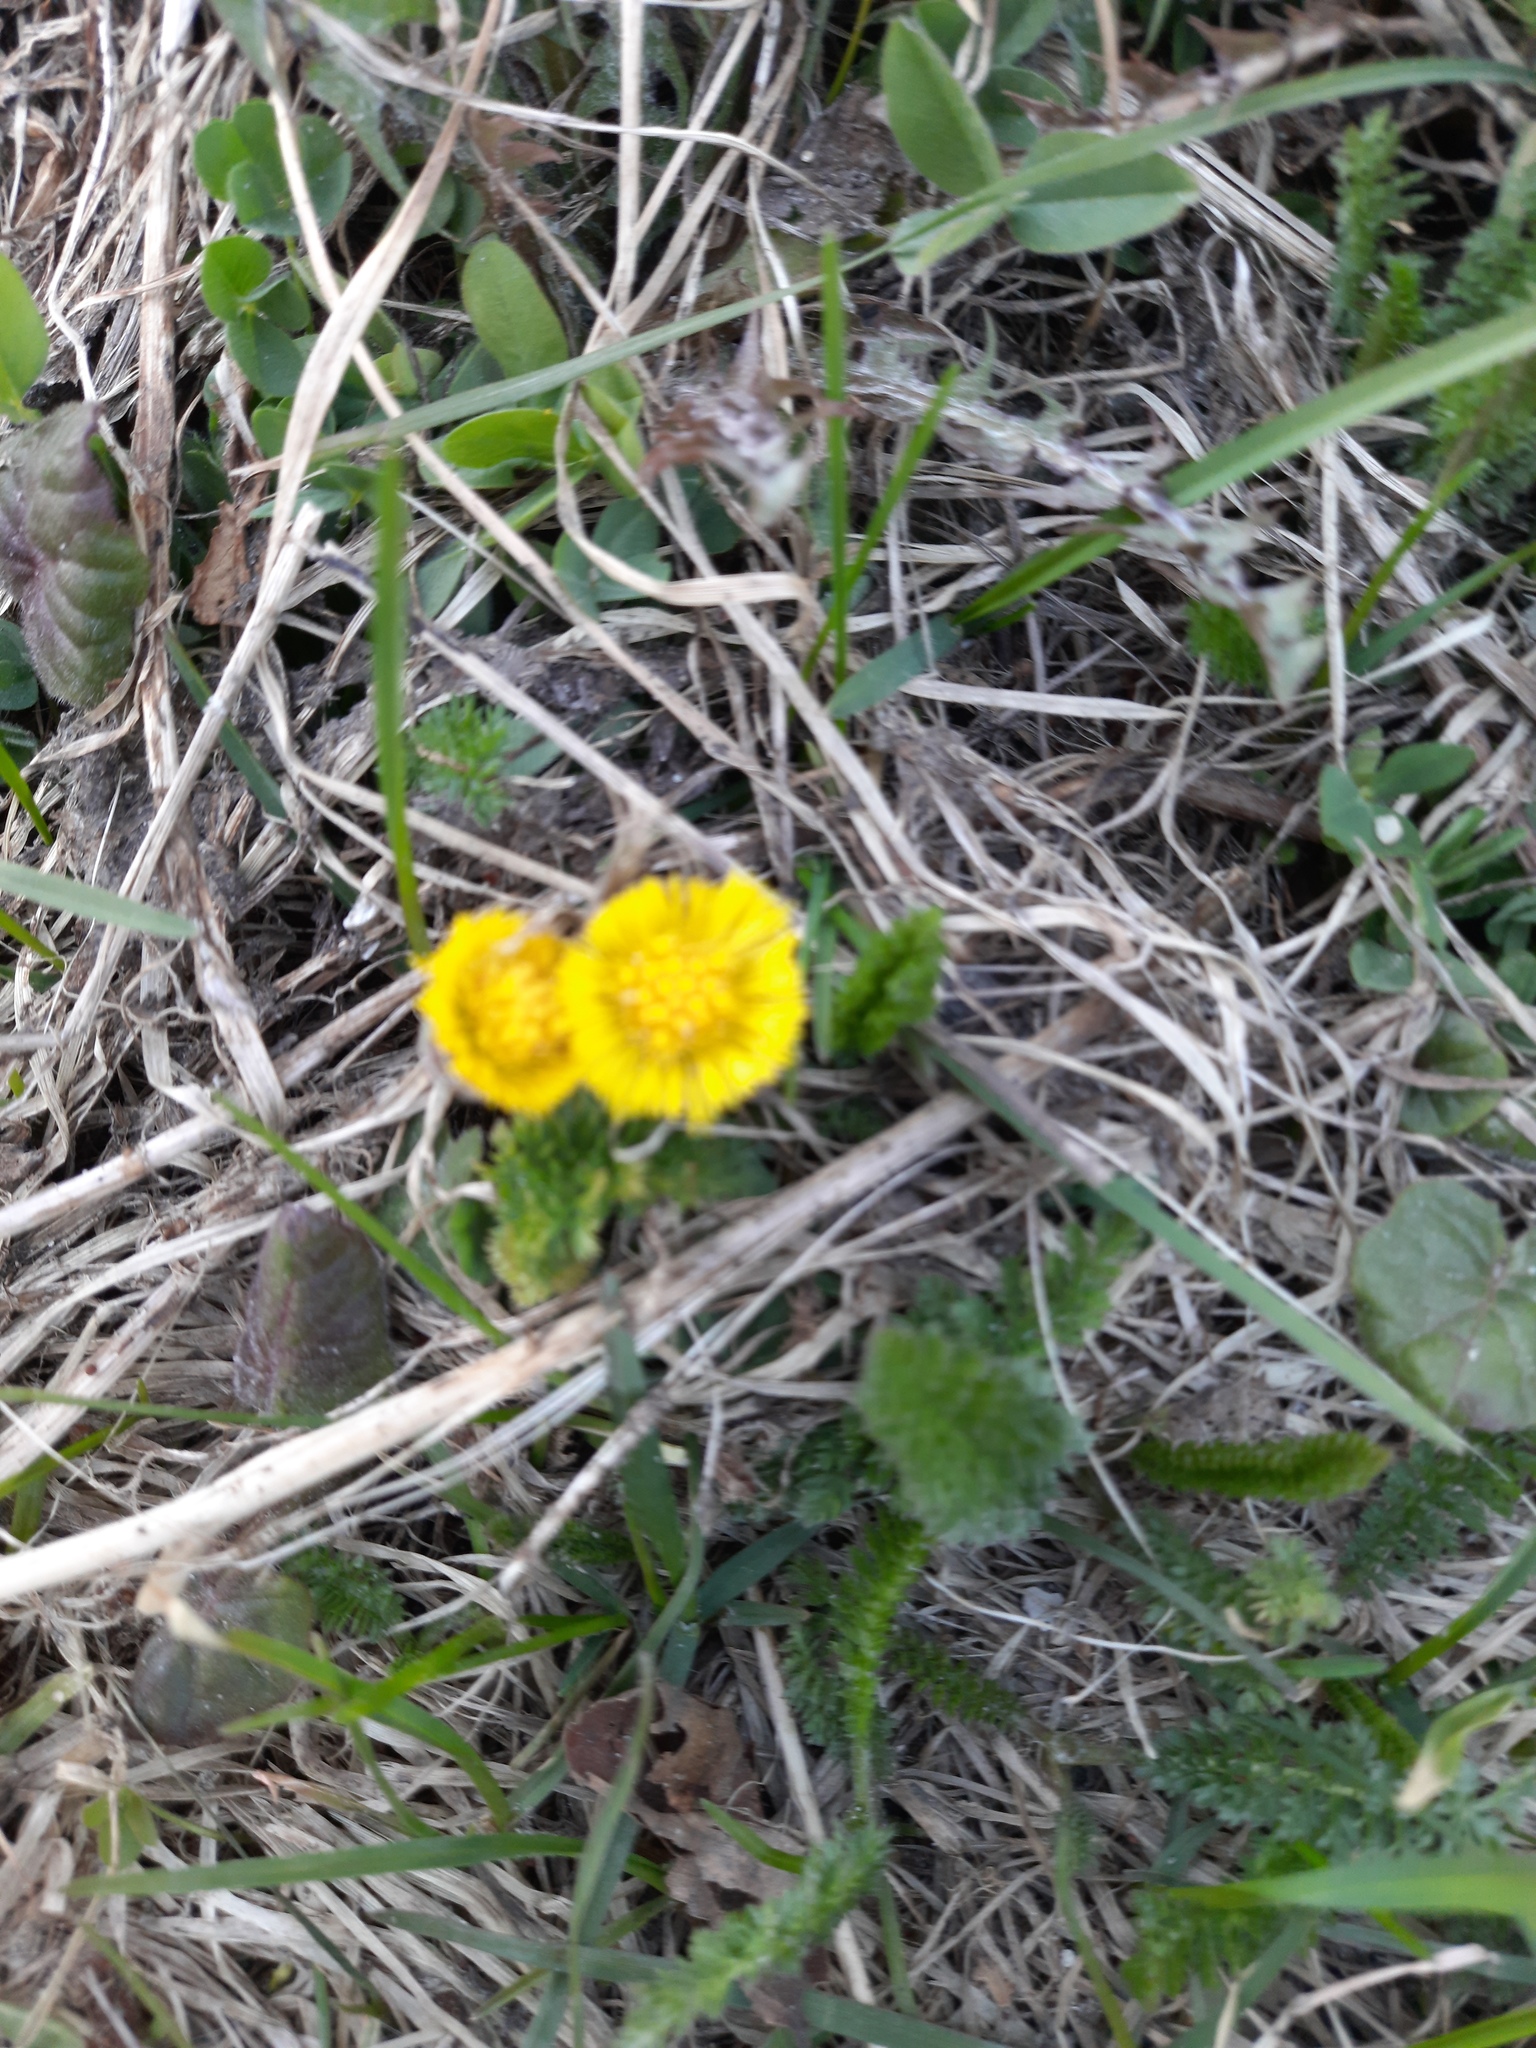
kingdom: Plantae
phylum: Tracheophyta
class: Magnoliopsida
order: Asterales
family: Asteraceae
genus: Tussilago
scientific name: Tussilago farfara
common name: Coltsfoot
